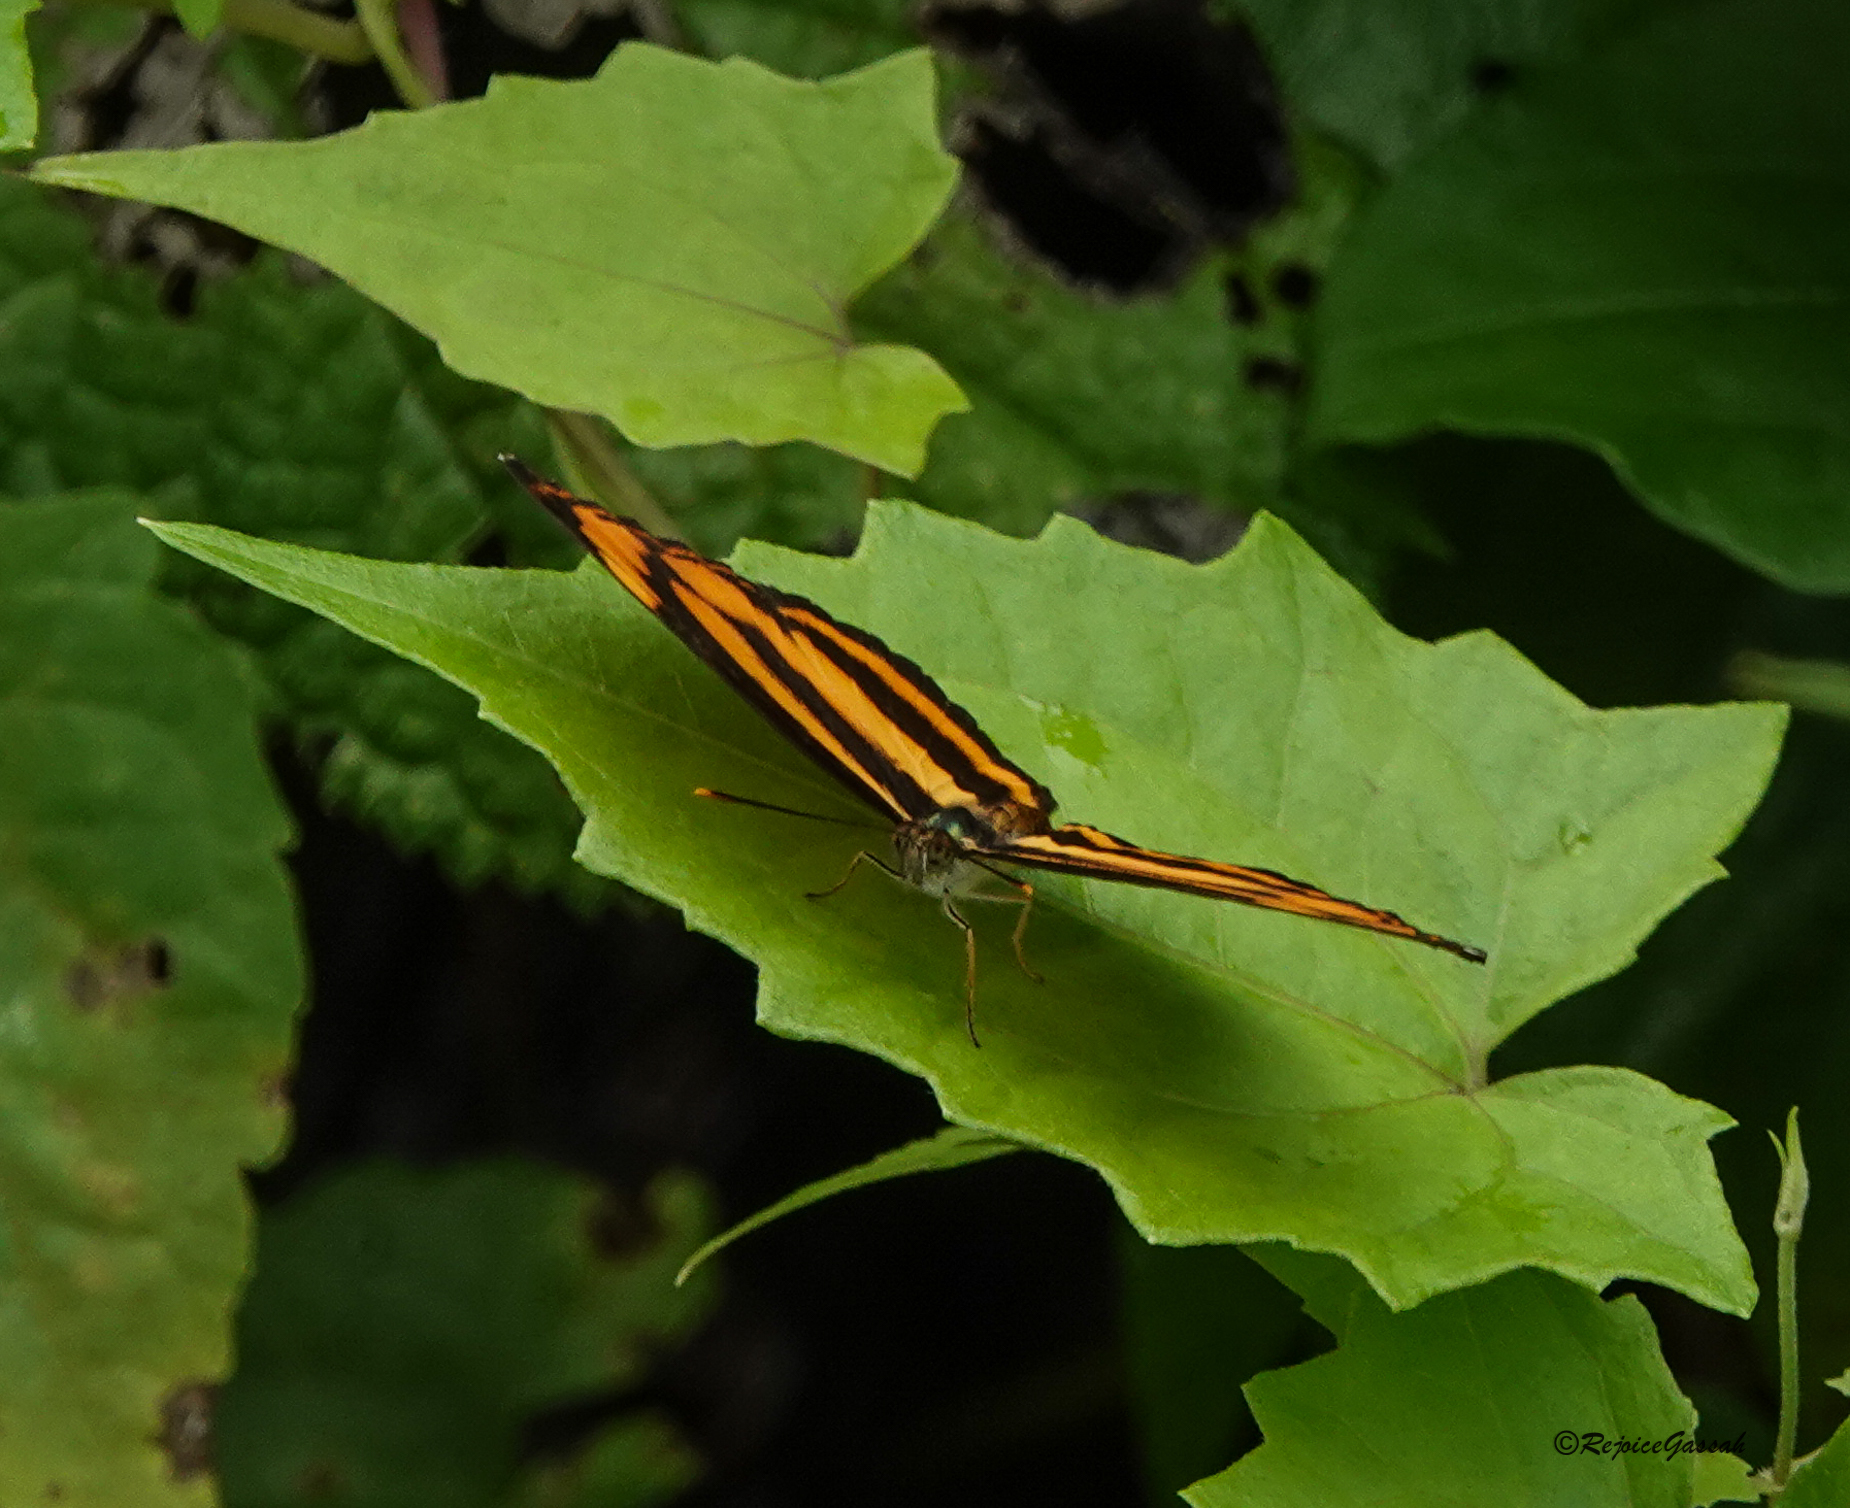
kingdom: Animalia
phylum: Arthropoda
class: Insecta
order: Lepidoptera
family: Nymphalidae
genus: Pantoporia
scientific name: Pantoporia hordonia
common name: Common lascar
